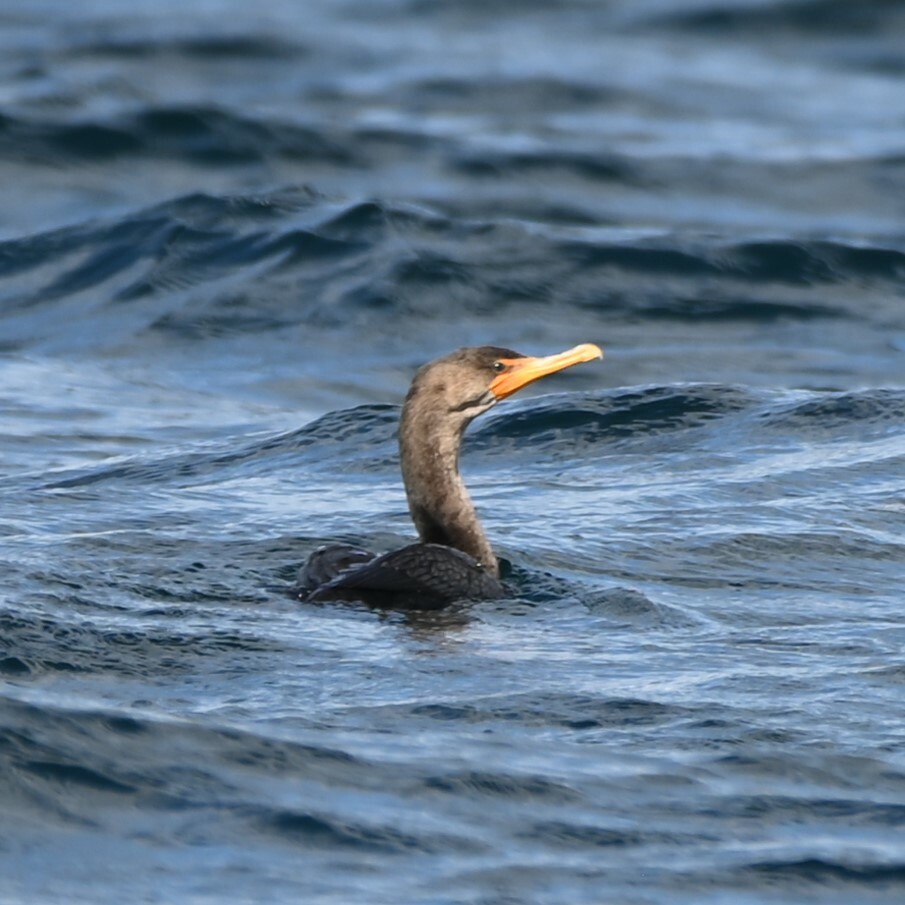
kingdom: Animalia
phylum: Chordata
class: Aves
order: Suliformes
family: Phalacrocoracidae
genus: Phalacrocorax
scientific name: Phalacrocorax auritus
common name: Double-crested cormorant
